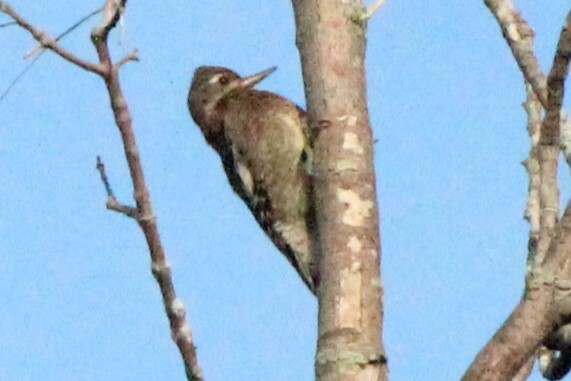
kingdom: Animalia
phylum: Chordata
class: Aves
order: Piciformes
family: Picidae
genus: Sphyrapicus
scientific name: Sphyrapicus varius
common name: Yellow-bellied sapsucker
